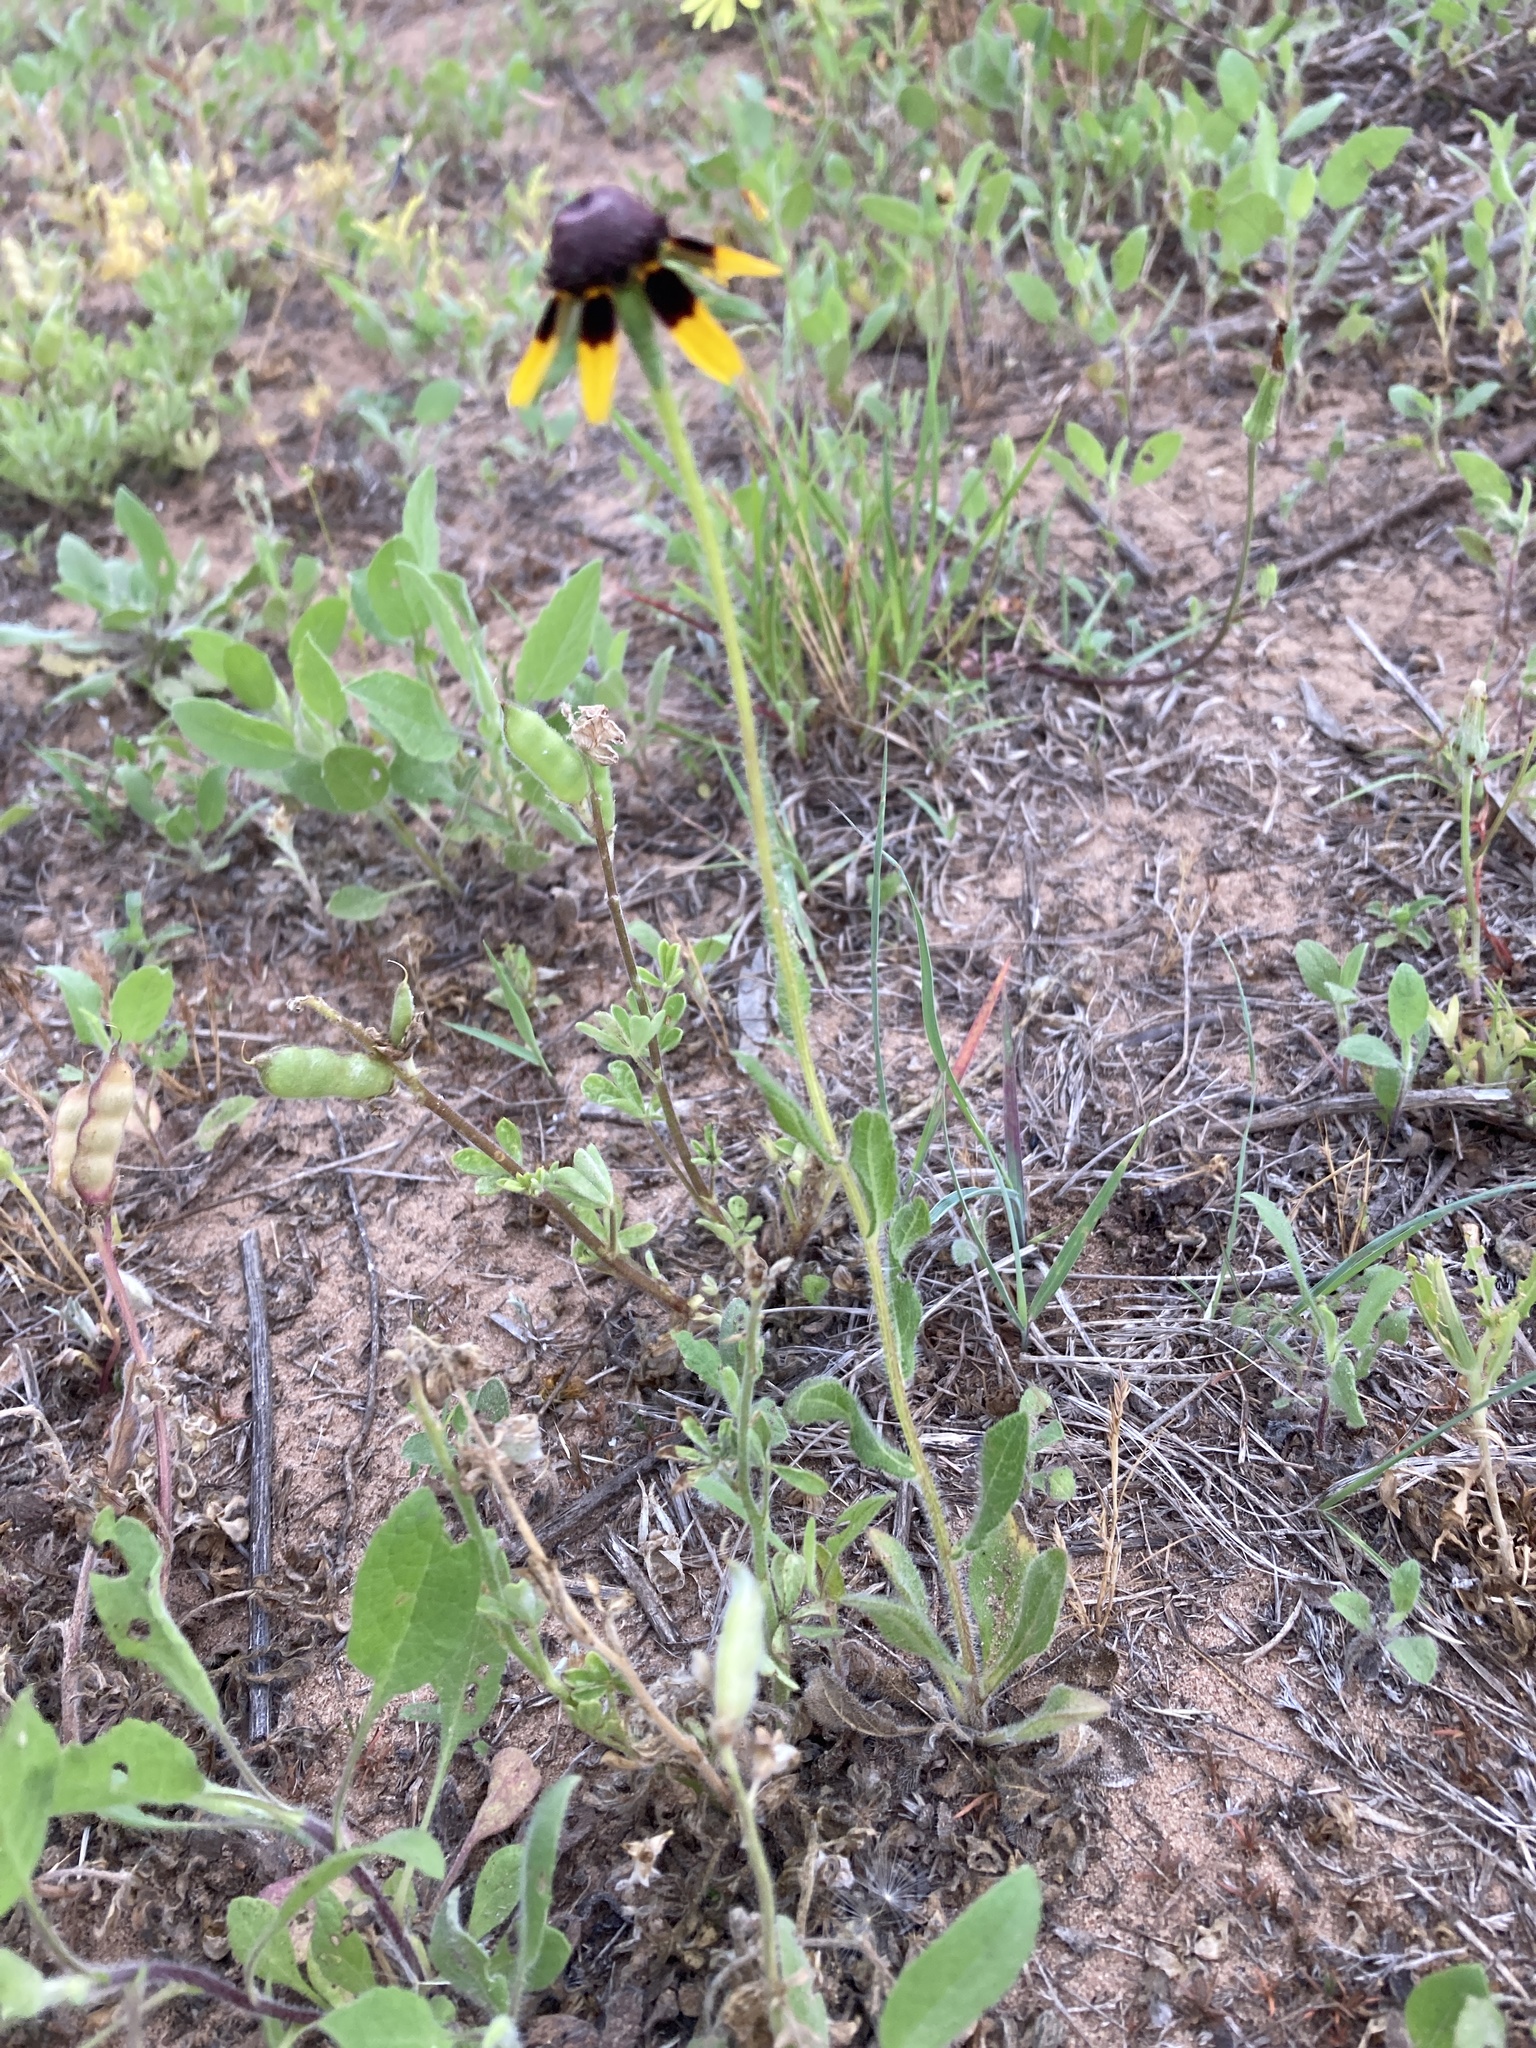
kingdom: Plantae
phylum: Tracheophyta
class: Magnoliopsida
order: Asterales
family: Asteraceae
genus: Rudbeckia
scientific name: Rudbeckia hirta
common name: Black-eyed-susan
